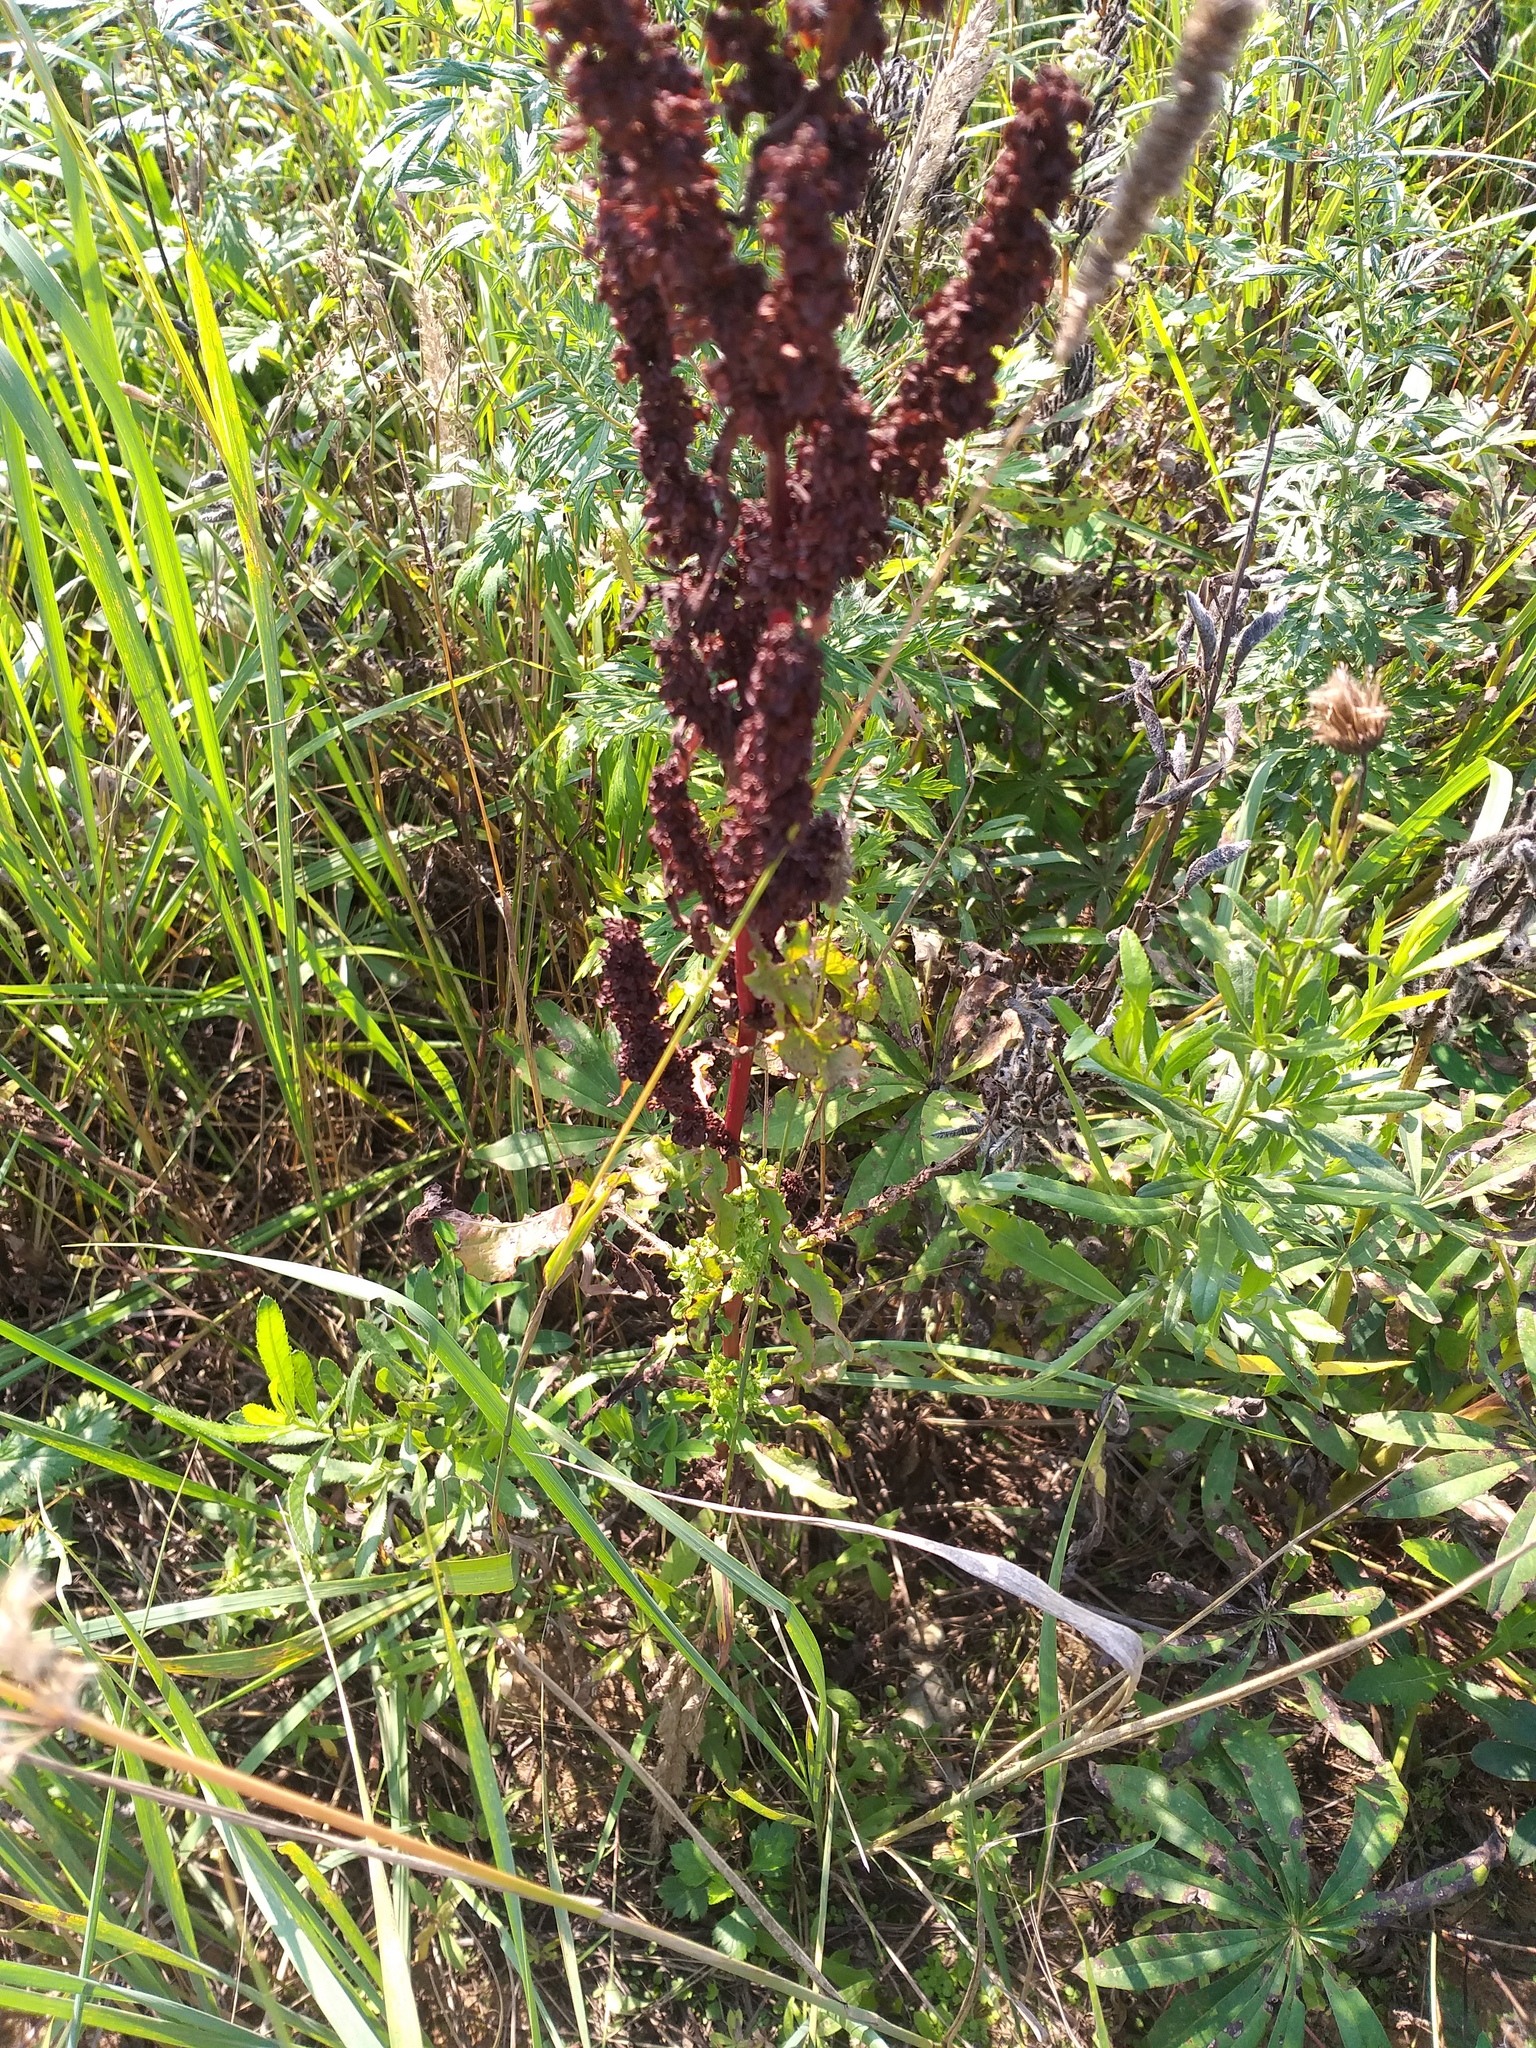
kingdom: Plantae
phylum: Tracheophyta
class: Magnoliopsida
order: Caryophyllales
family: Polygonaceae
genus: Rumex
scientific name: Rumex crispus
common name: Curled dock
